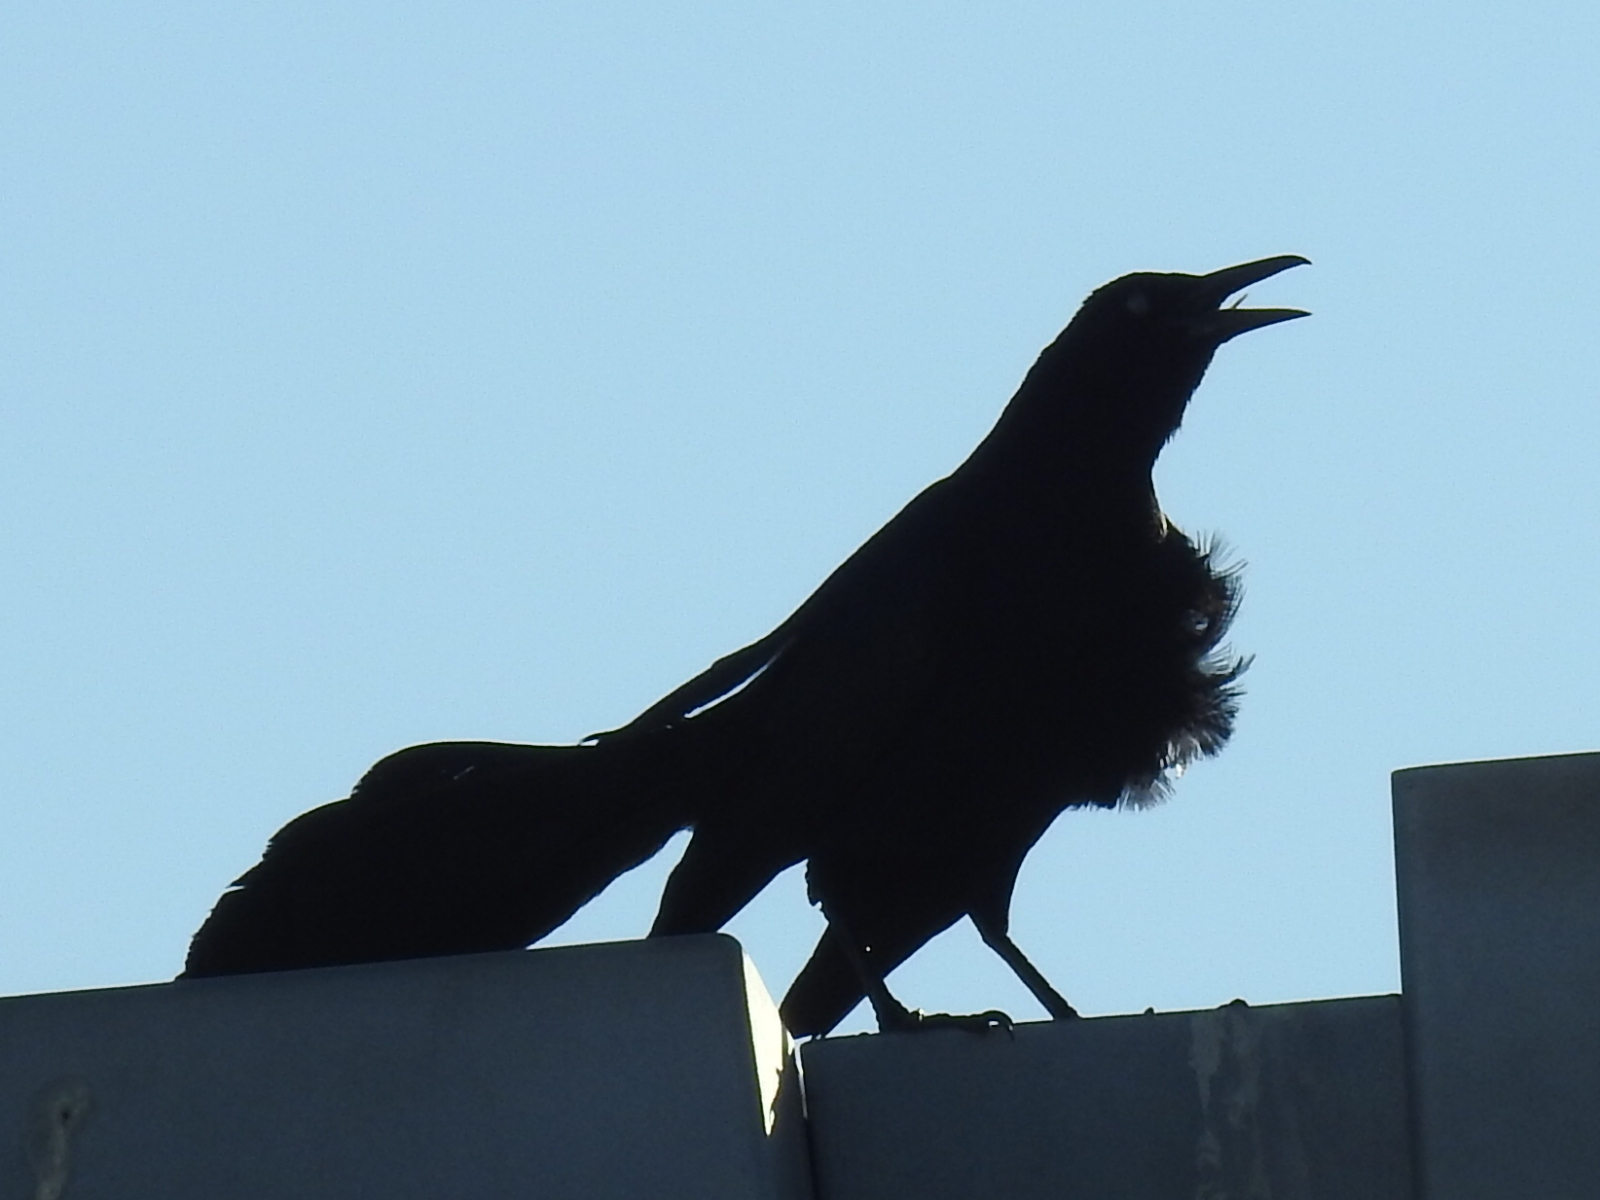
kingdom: Animalia
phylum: Chordata
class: Aves
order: Passeriformes
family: Icteridae
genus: Quiscalus
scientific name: Quiscalus mexicanus
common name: Great-tailed grackle
